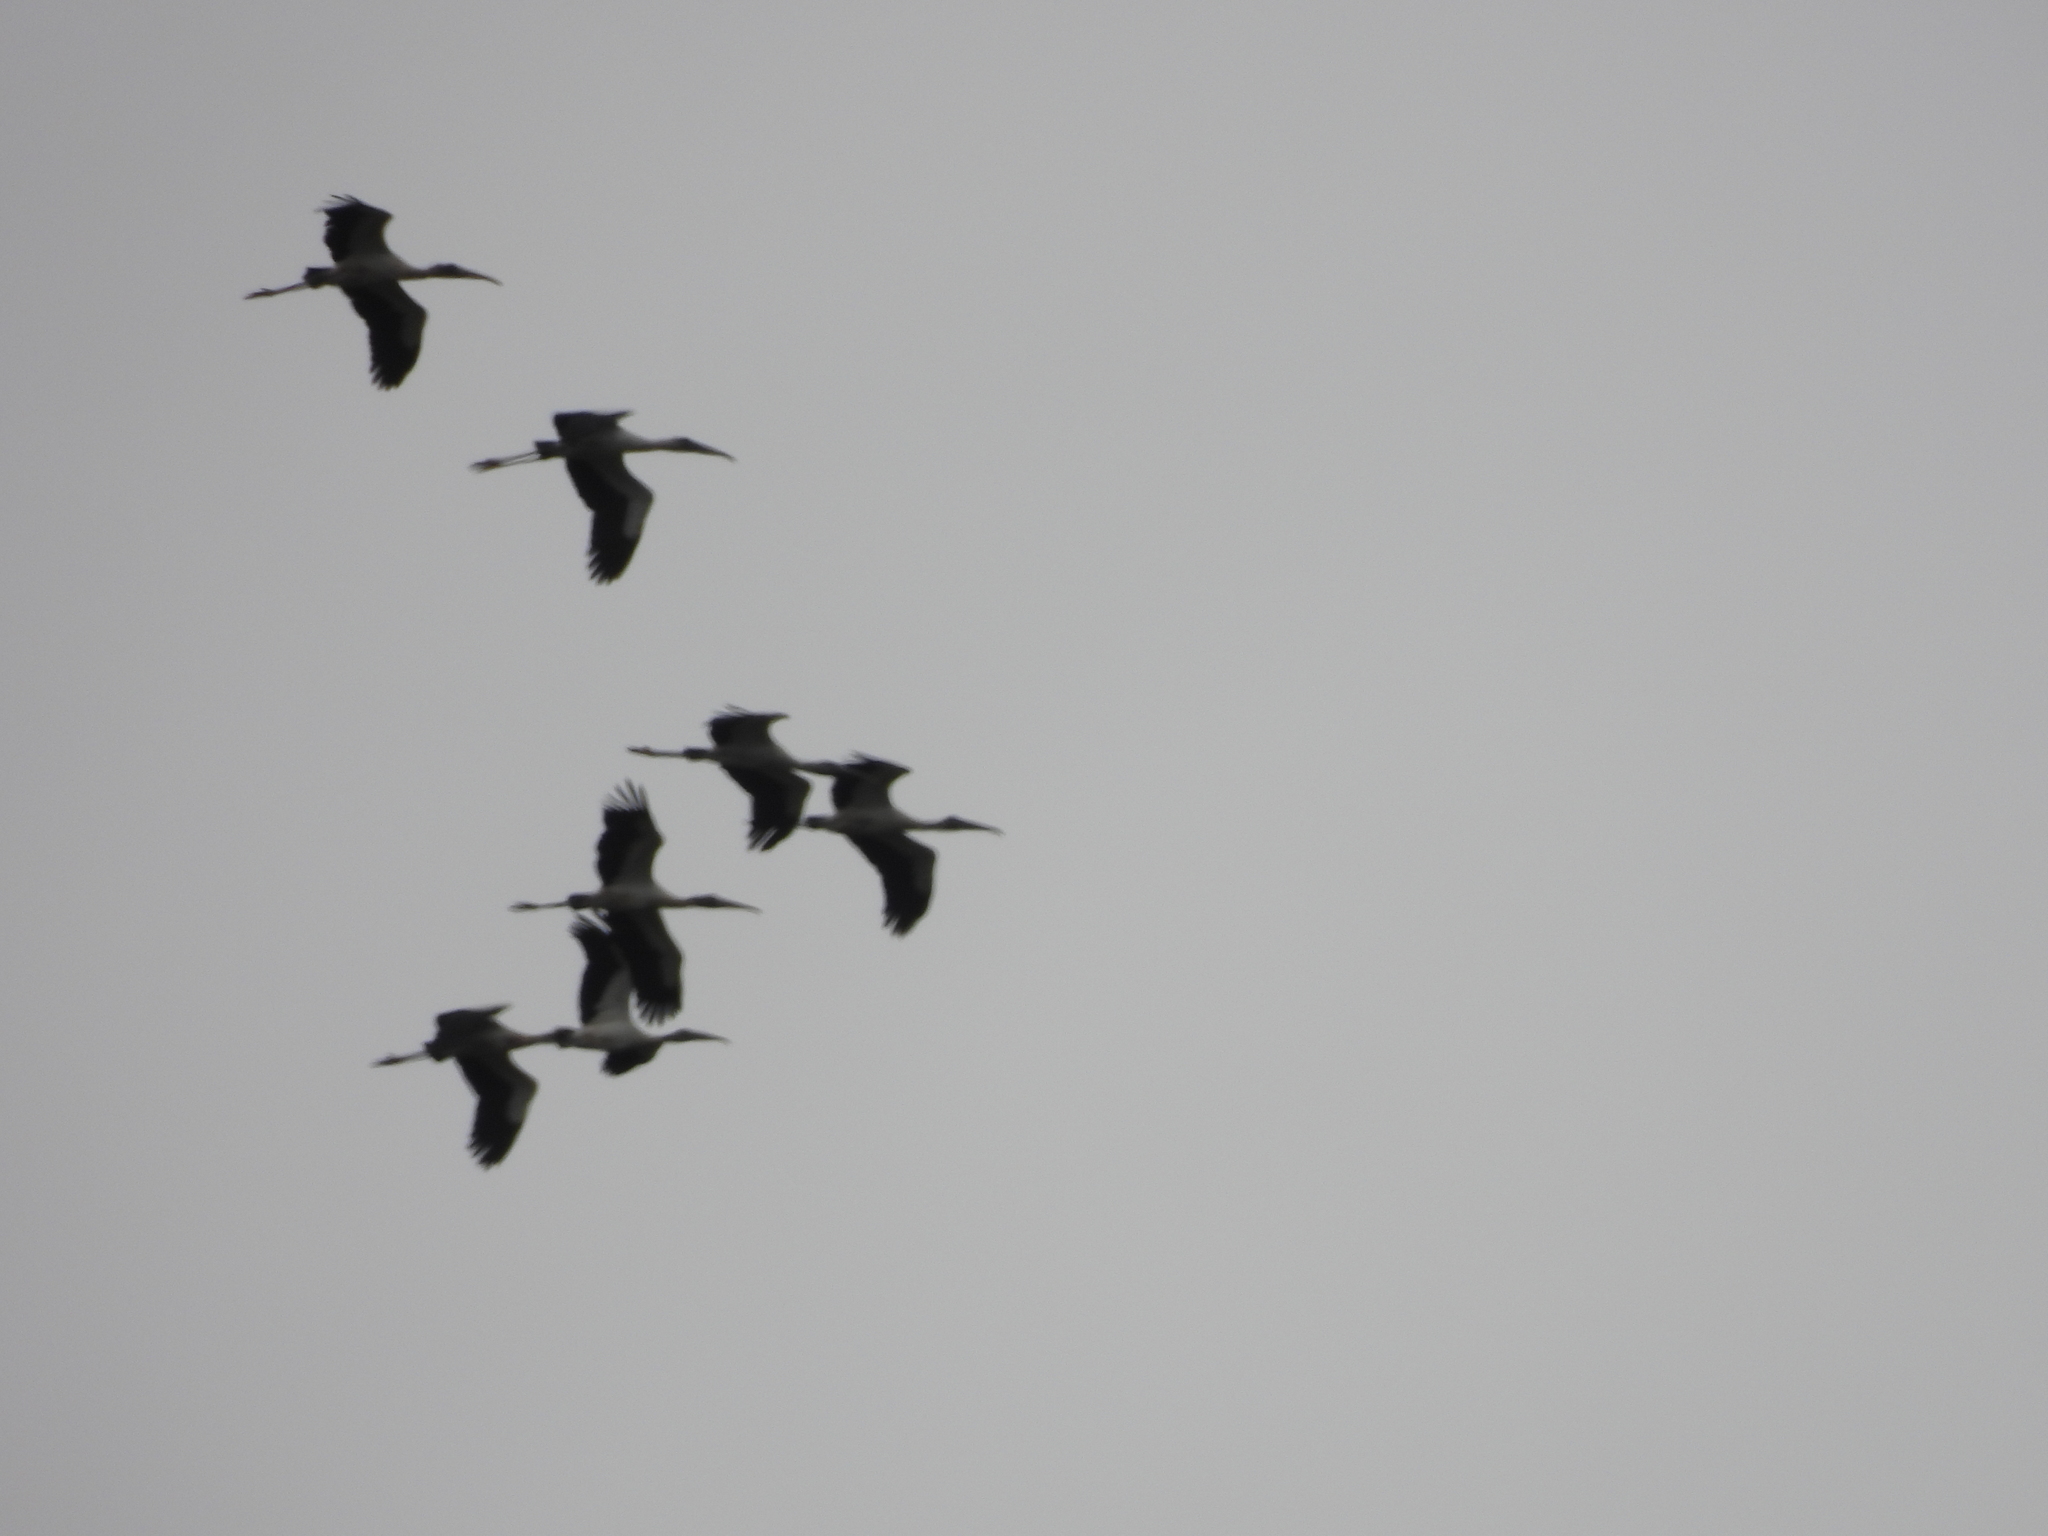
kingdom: Animalia
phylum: Chordata
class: Aves
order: Ciconiiformes
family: Ciconiidae
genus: Mycteria
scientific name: Mycteria americana
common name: Wood stork
